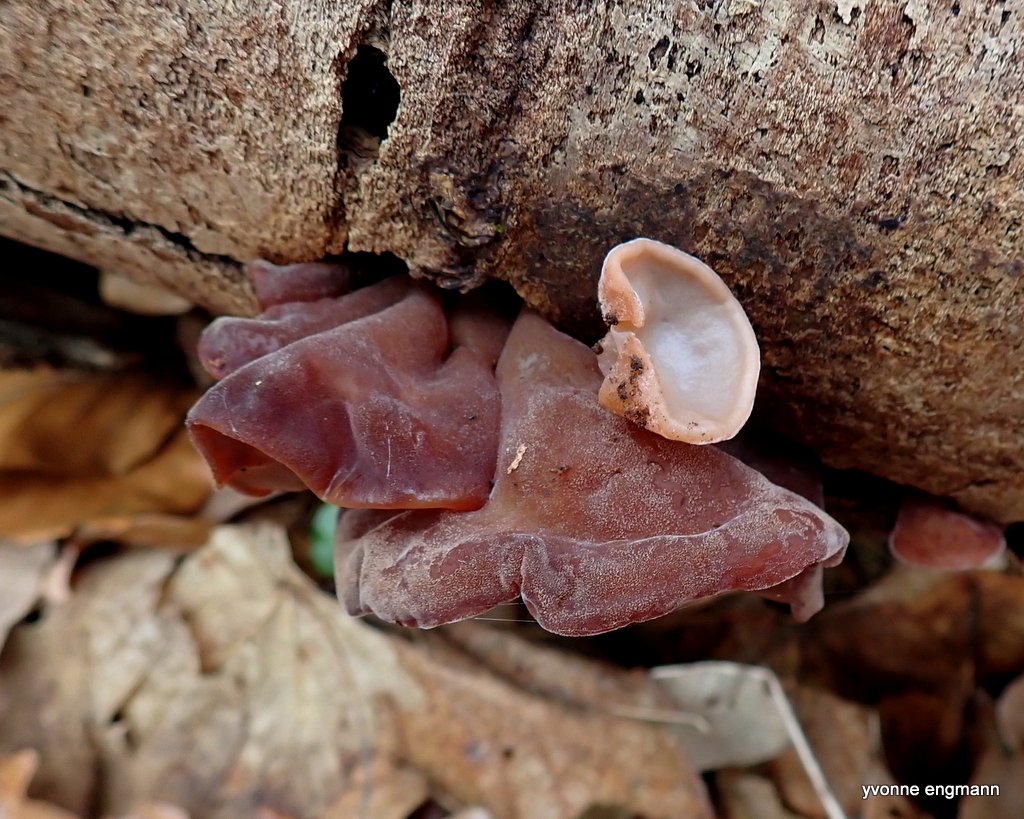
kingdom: Fungi
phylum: Basidiomycota
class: Agaricomycetes
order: Auriculariales
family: Auriculariaceae
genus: Auricularia
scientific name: Auricularia auricula-judae
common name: Jelly ear
